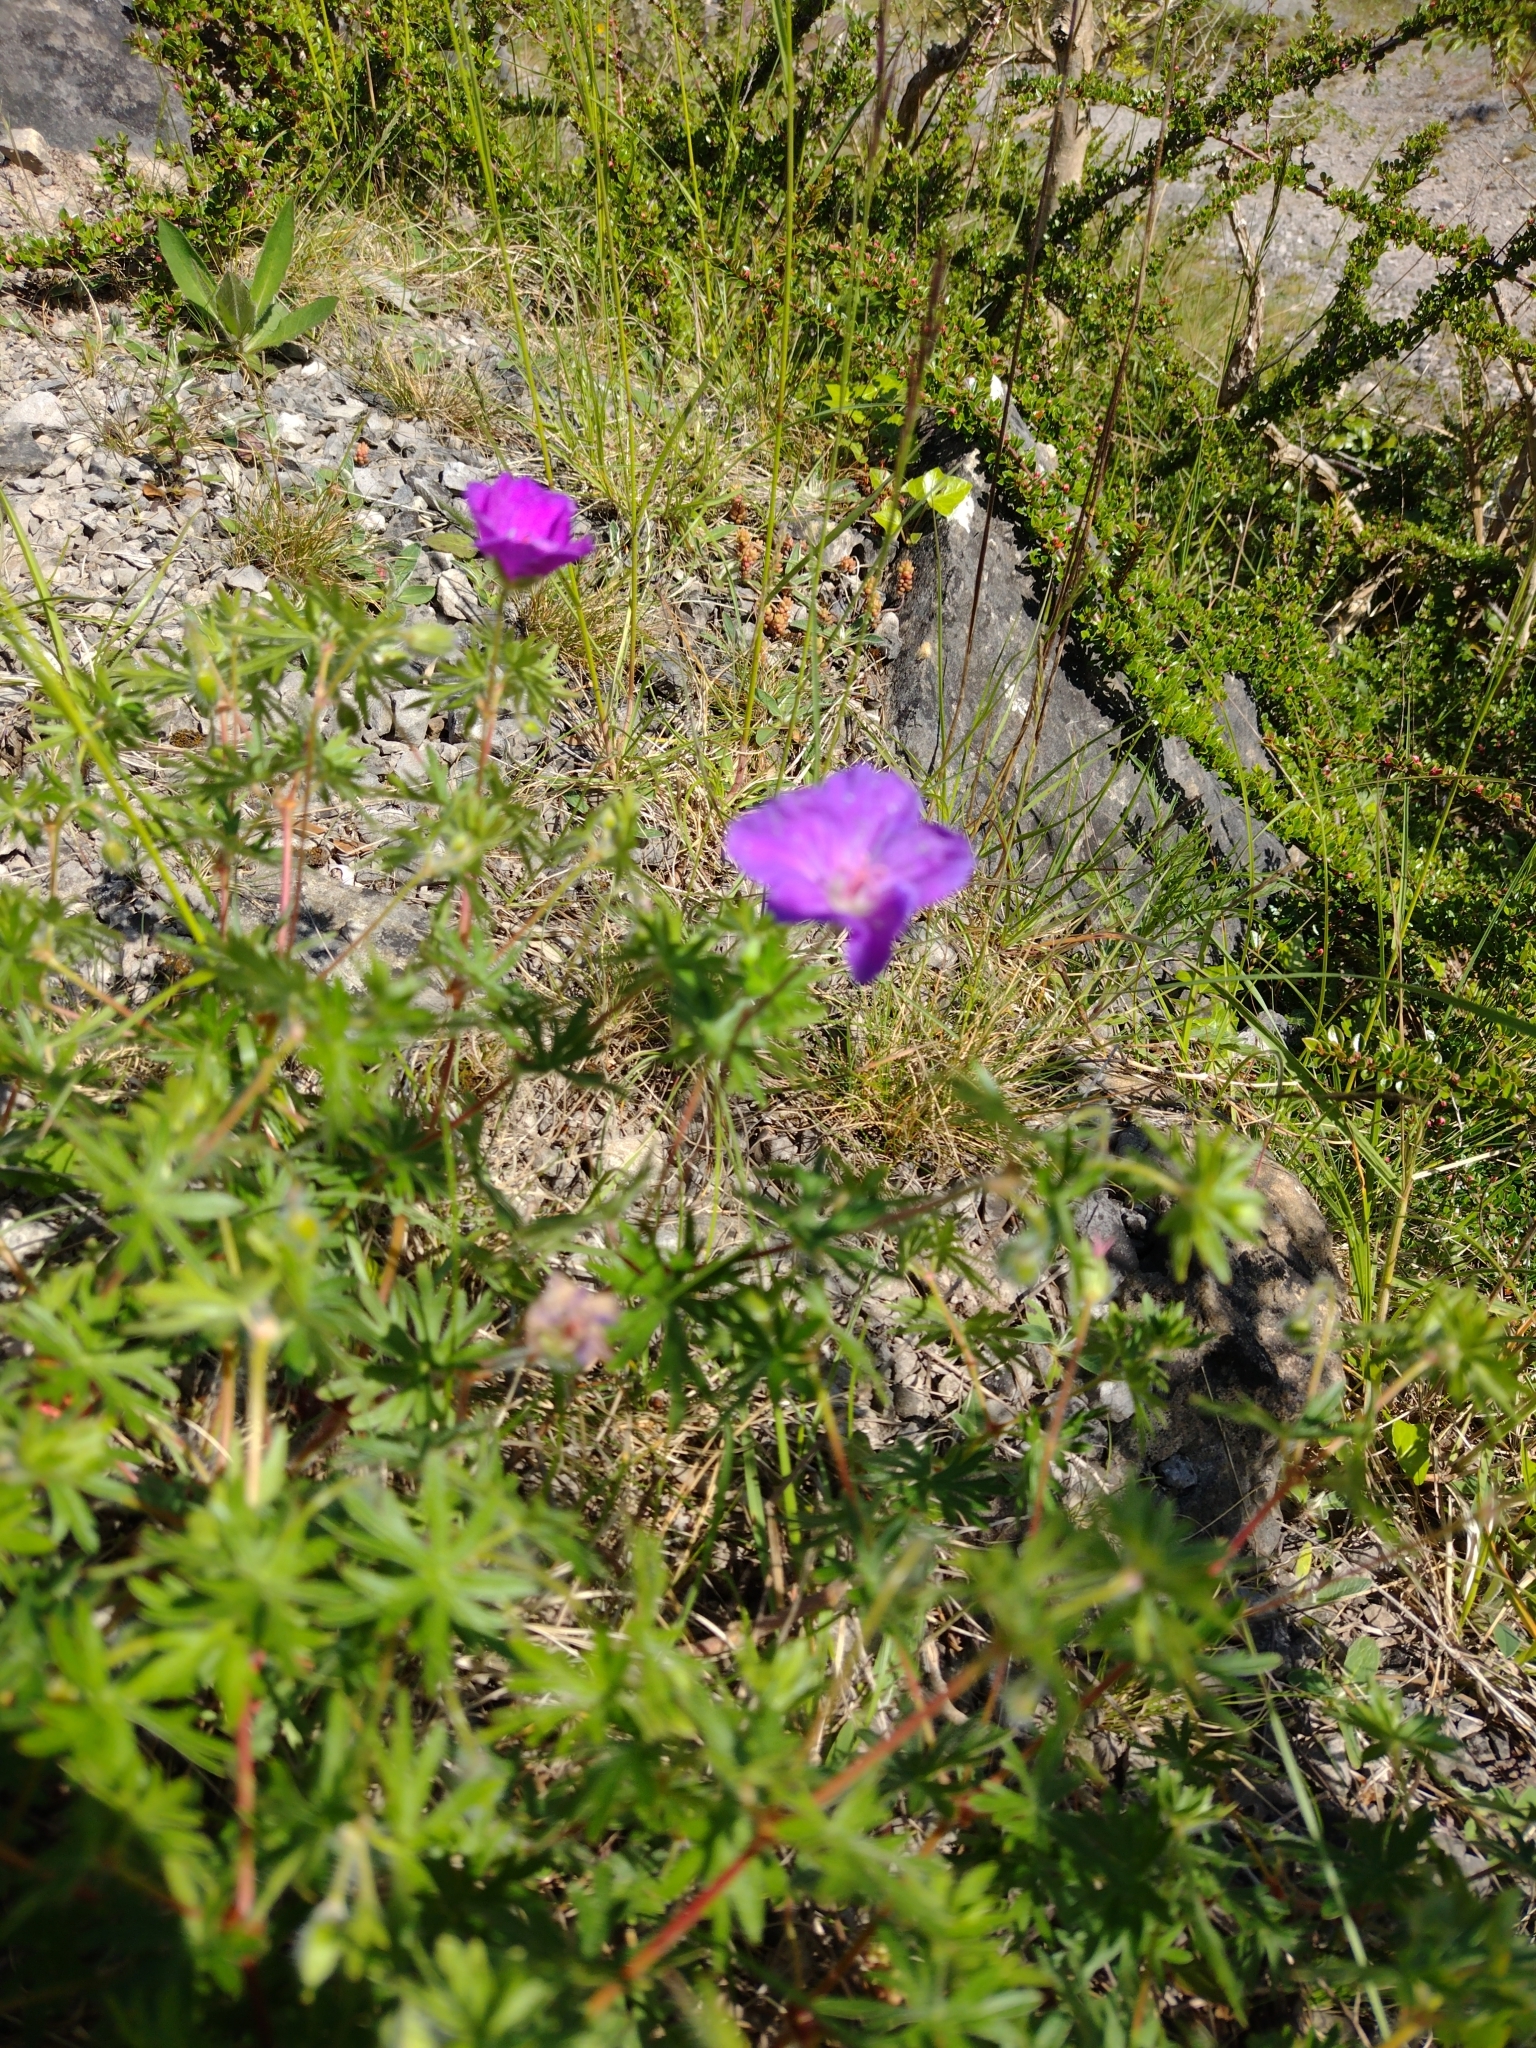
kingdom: Plantae
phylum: Tracheophyta
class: Magnoliopsida
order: Geraniales
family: Geraniaceae
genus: Geranium
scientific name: Geranium sanguineum
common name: Bloody crane's-bill
